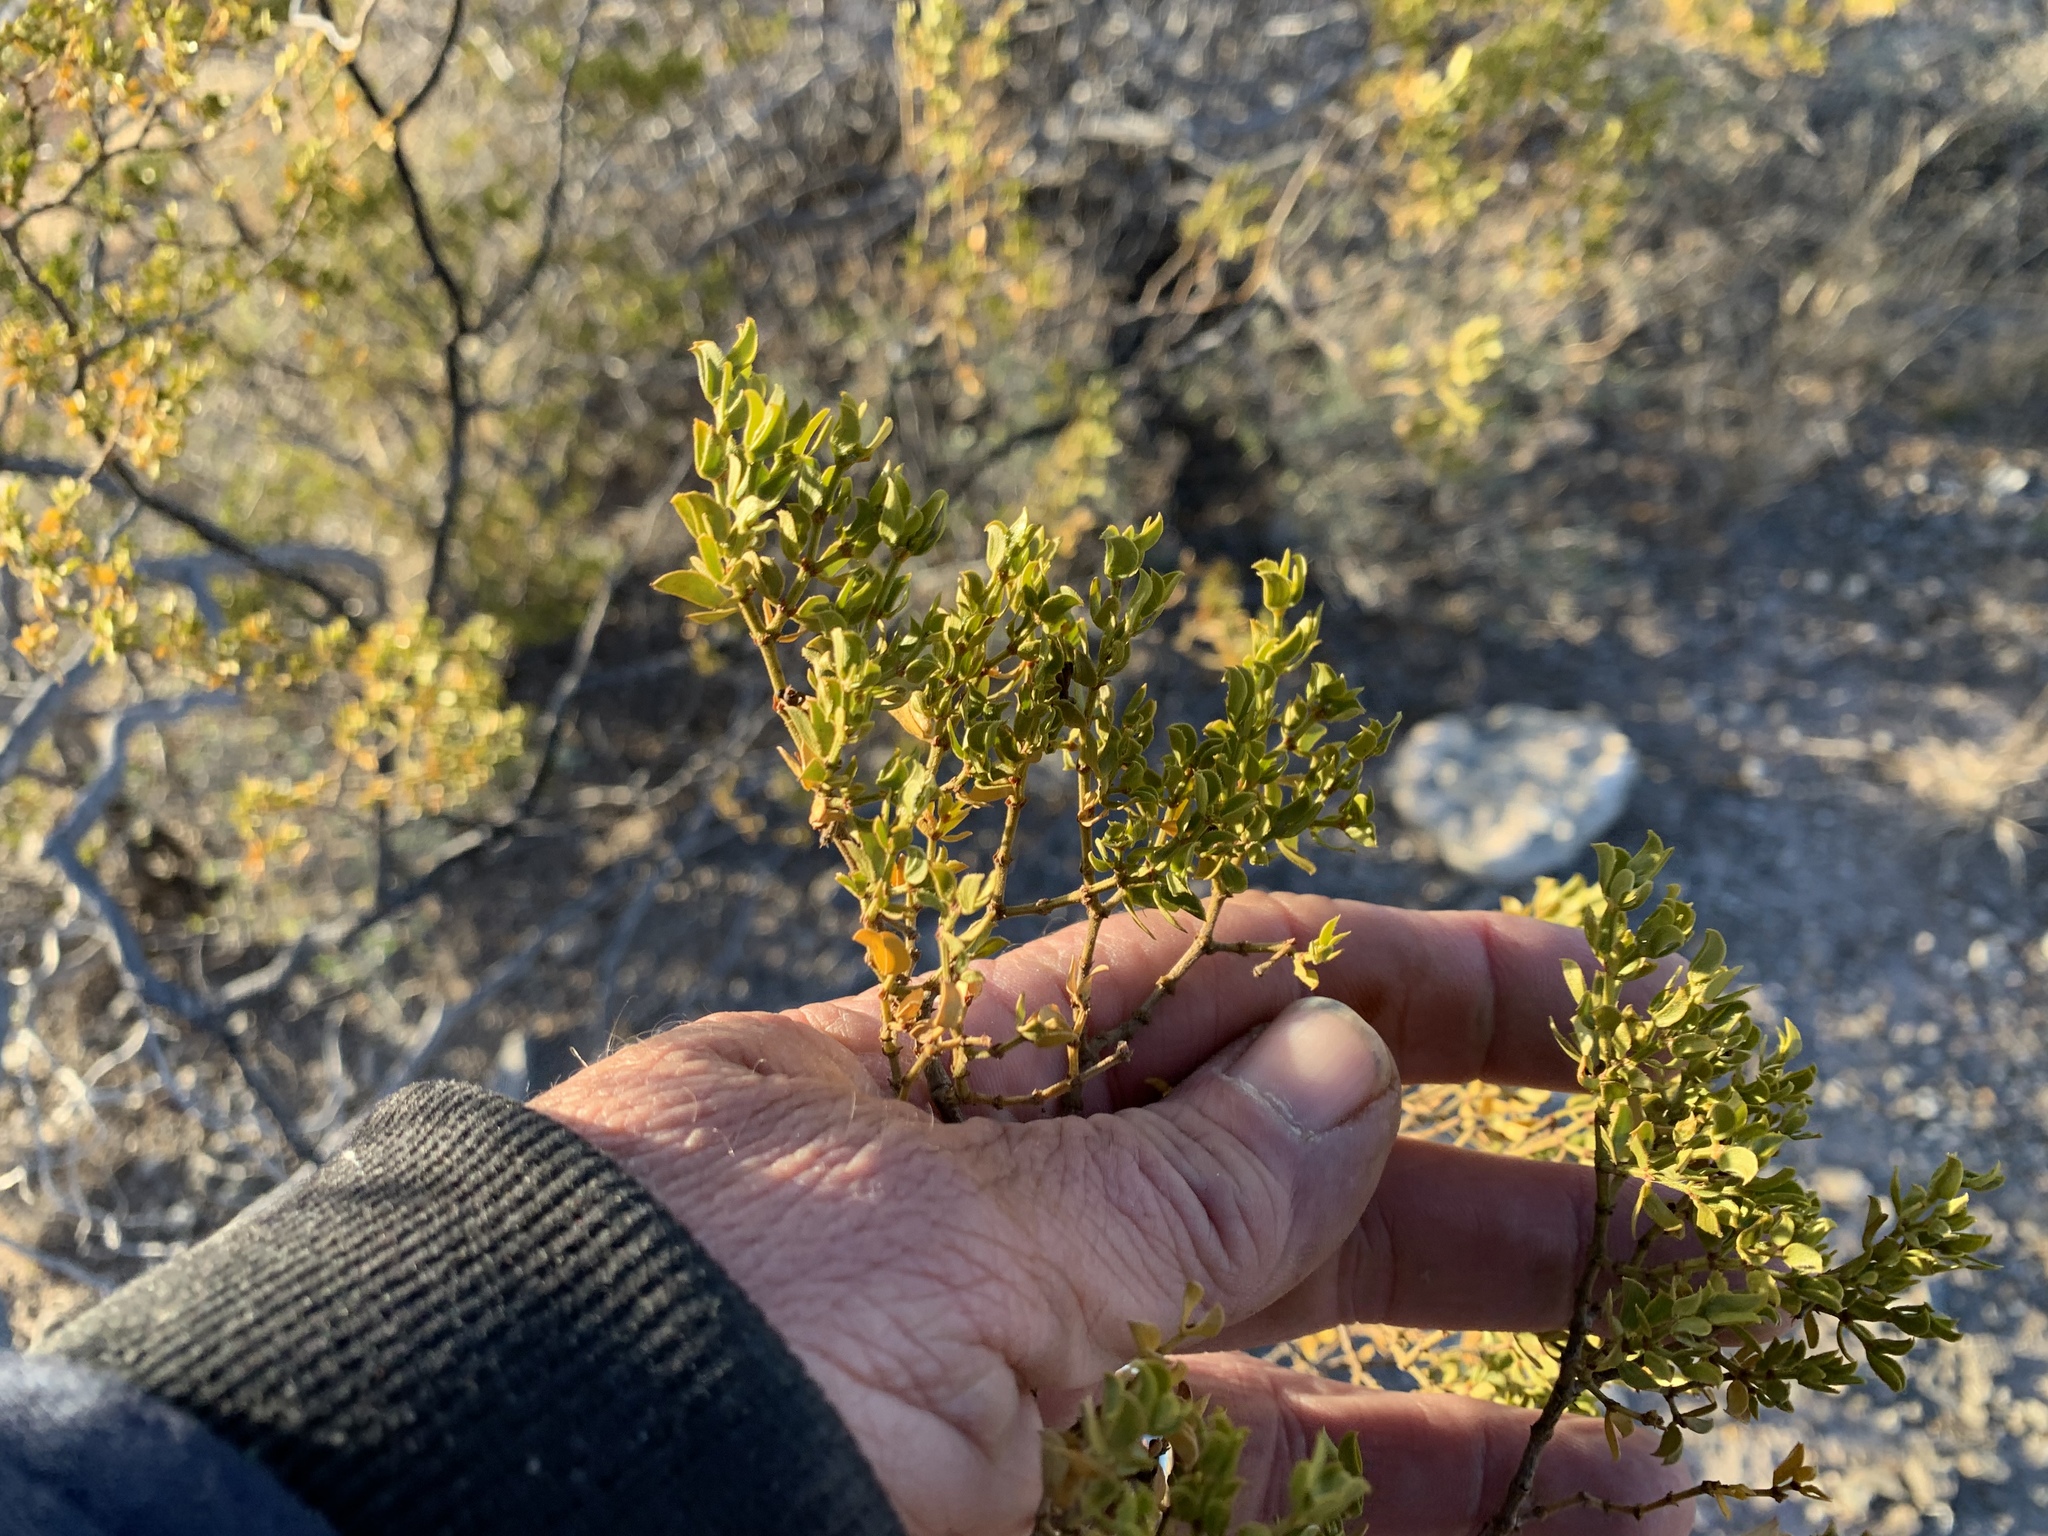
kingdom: Plantae
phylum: Tracheophyta
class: Magnoliopsida
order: Zygophyllales
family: Zygophyllaceae
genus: Larrea
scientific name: Larrea tridentata
